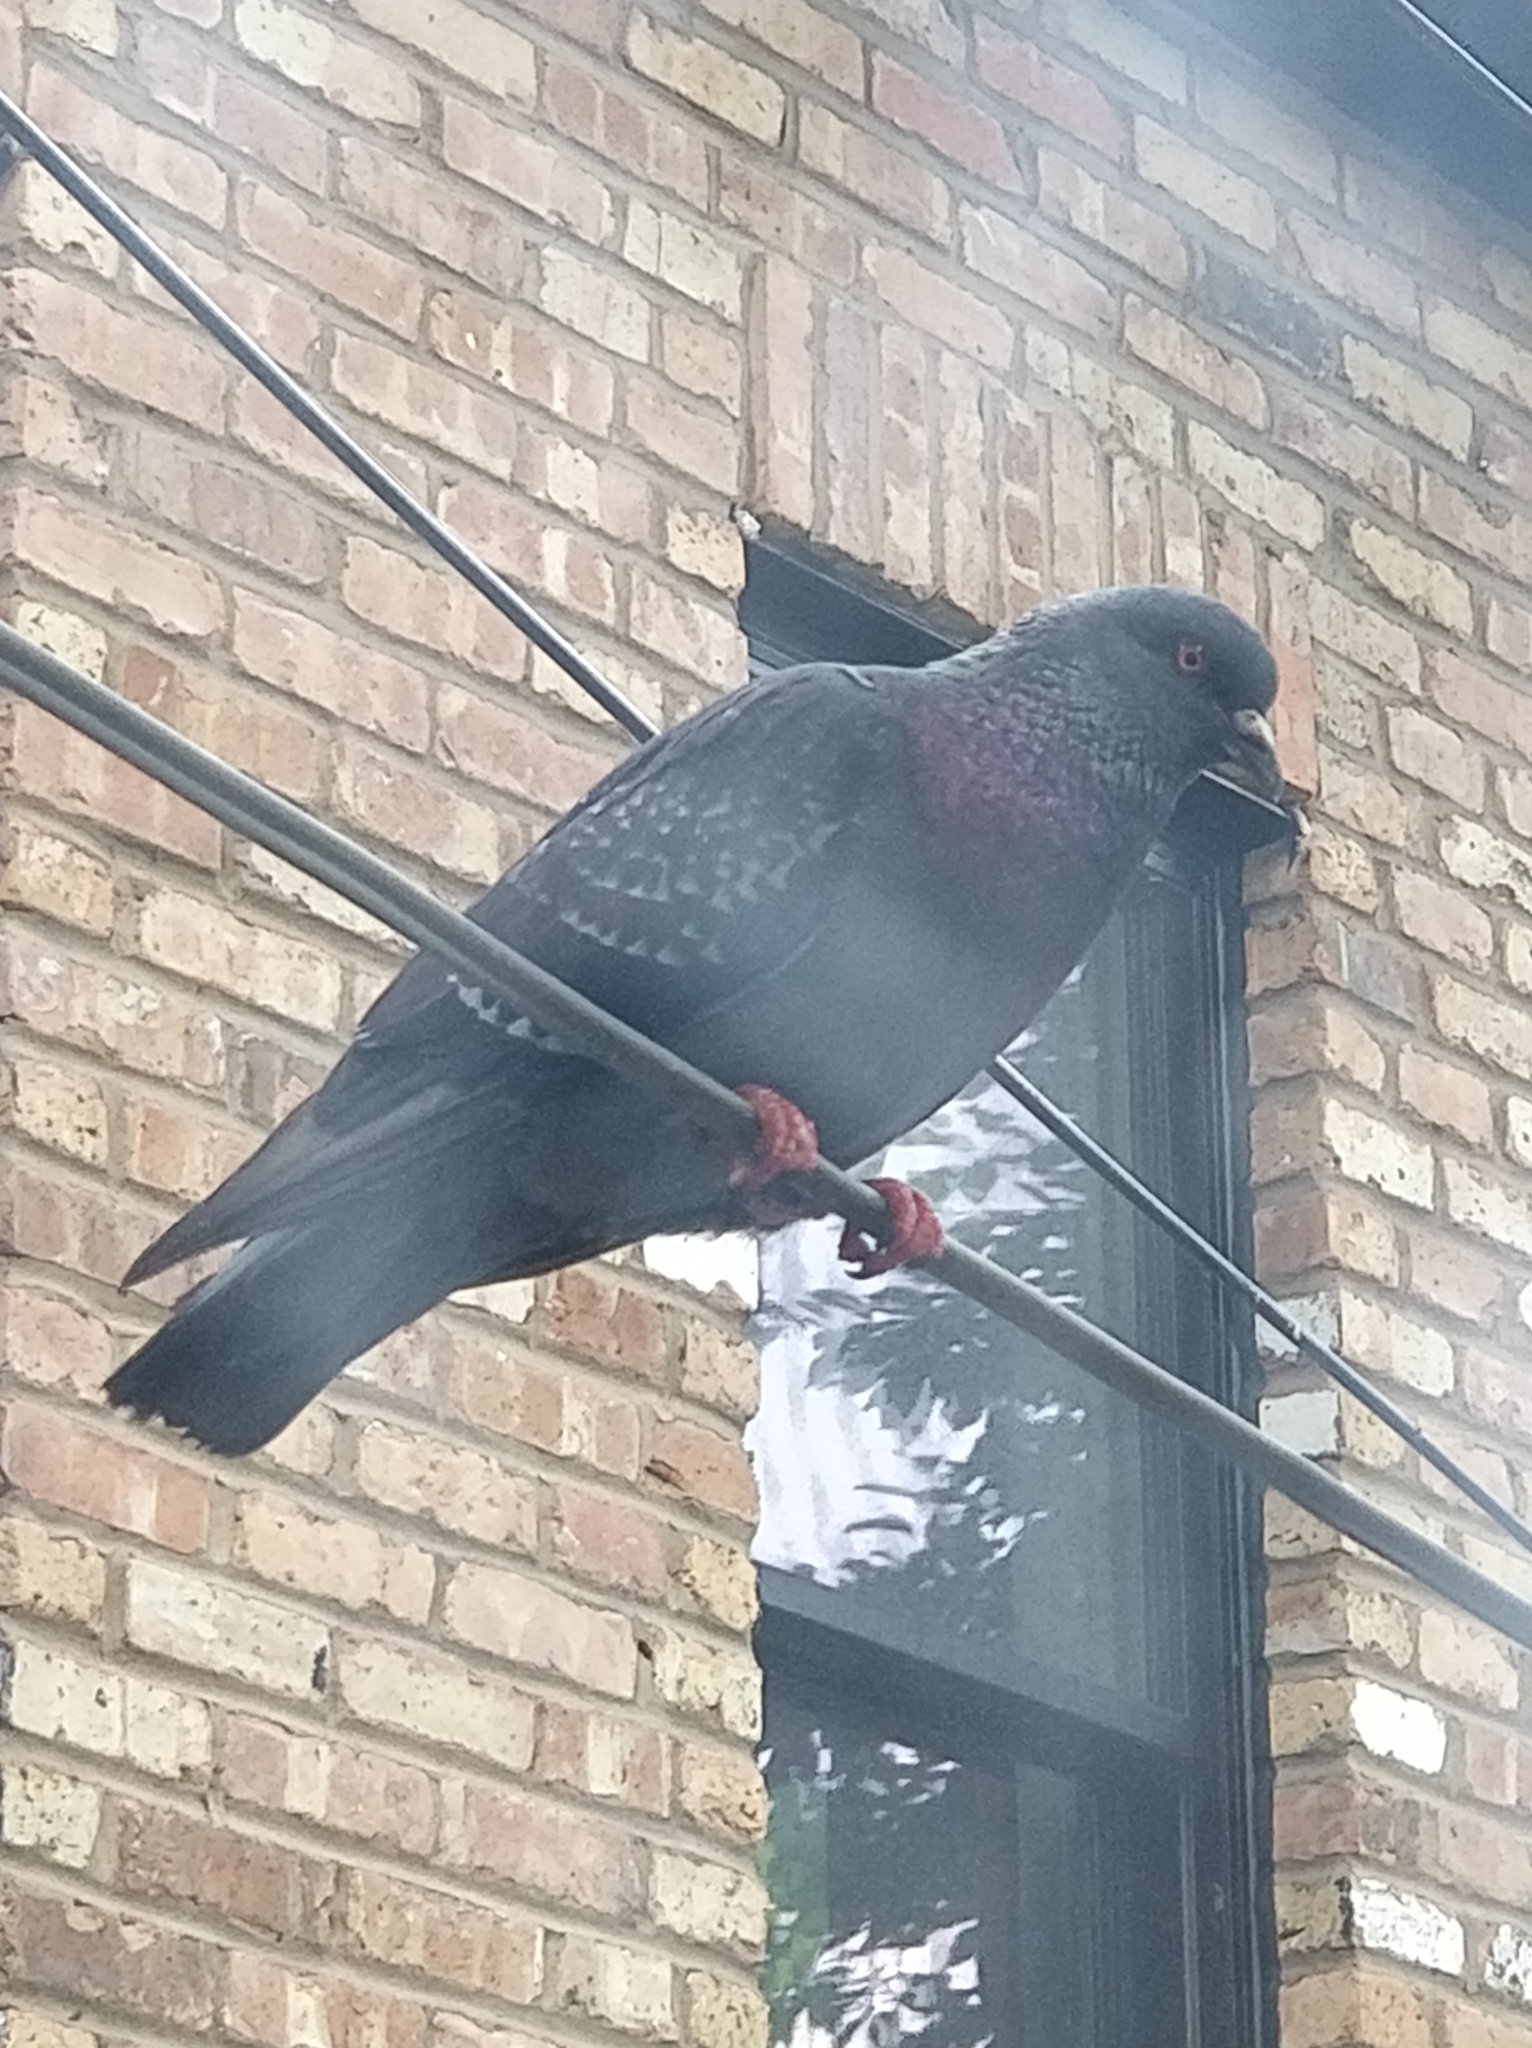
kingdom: Animalia
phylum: Chordata
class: Aves
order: Columbiformes
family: Columbidae
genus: Columba
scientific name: Columba livia
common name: Rock pigeon
